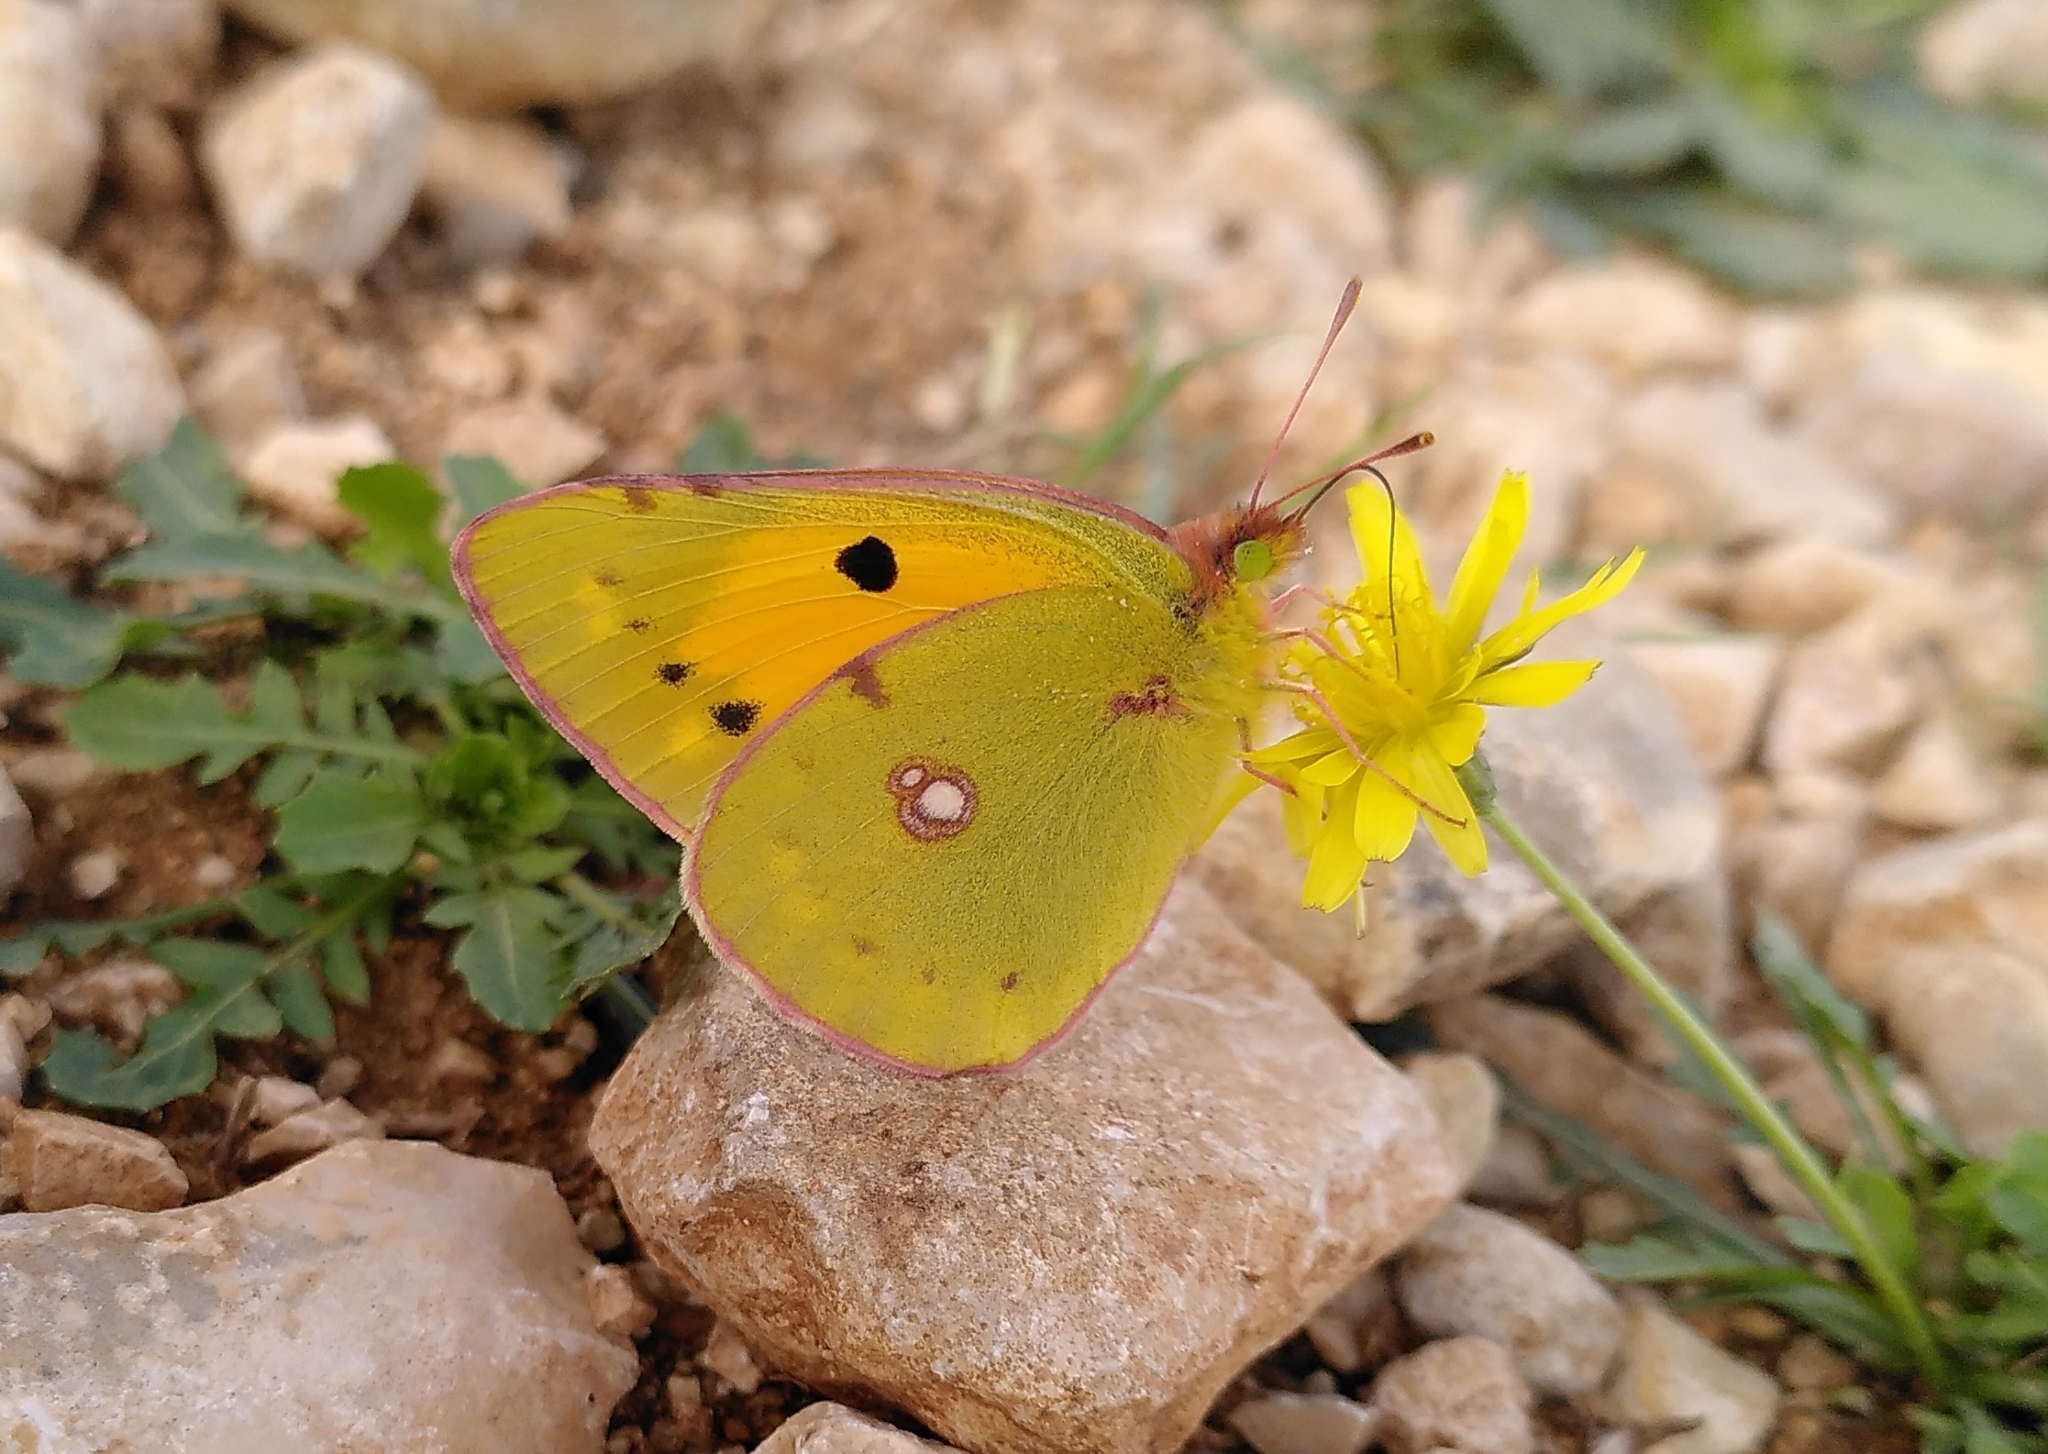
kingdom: Animalia
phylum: Arthropoda
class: Insecta
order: Lepidoptera
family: Pieridae
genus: Colias
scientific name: Colias croceus
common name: Clouded yellow
